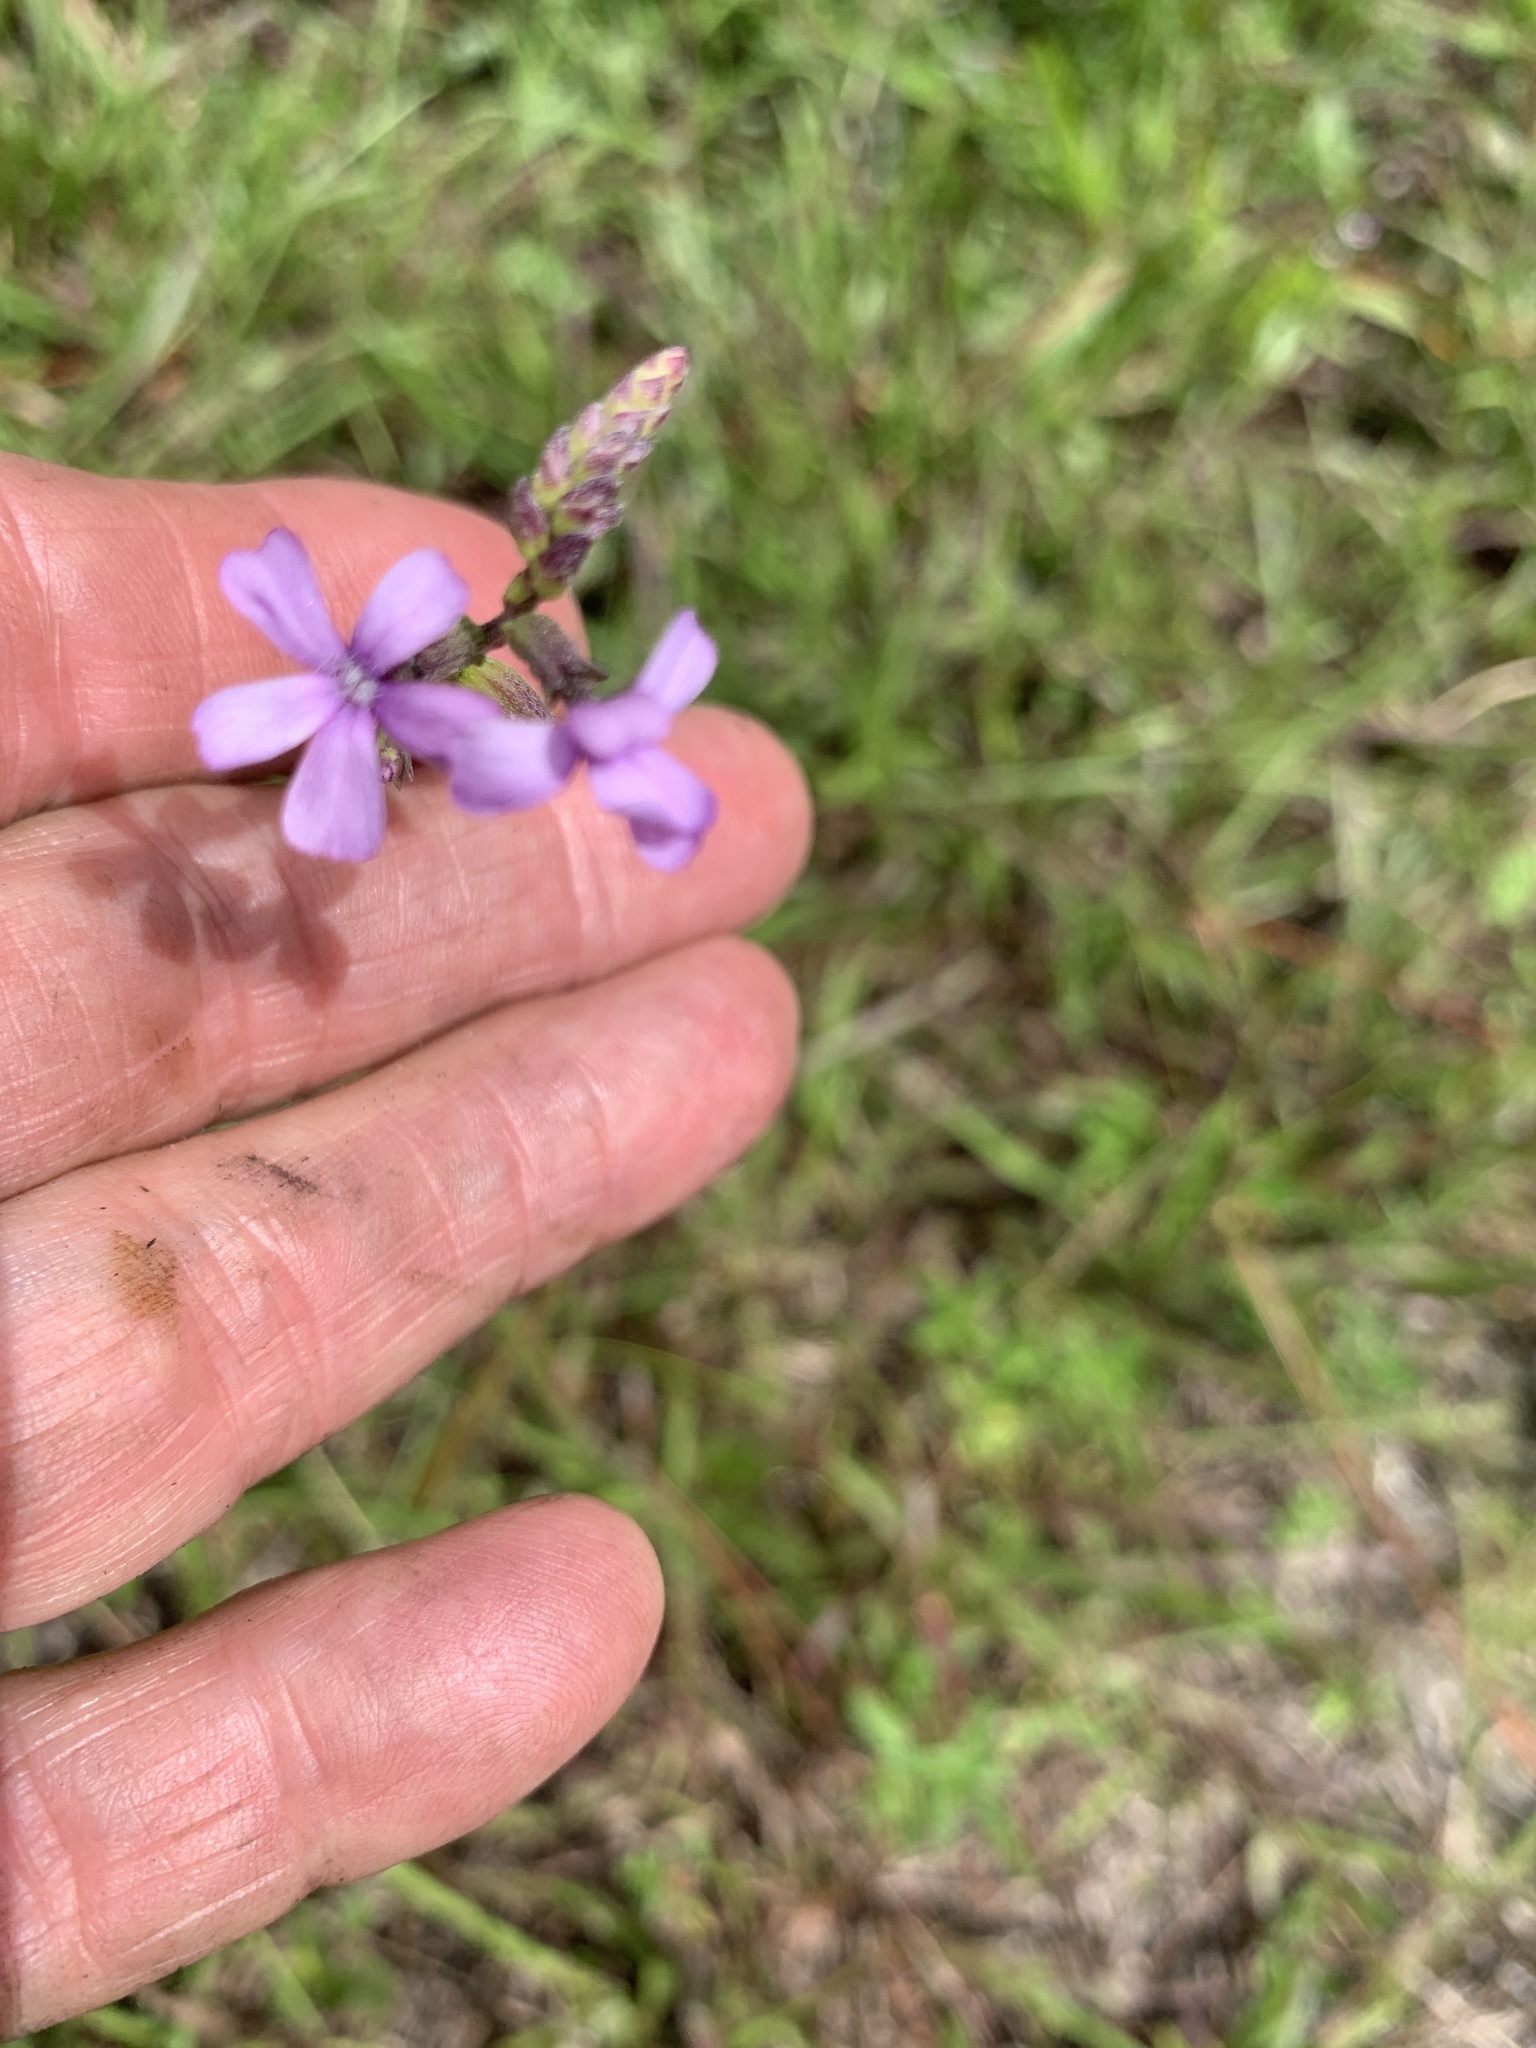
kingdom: Plantae
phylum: Tracheophyta
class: Magnoliopsida
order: Lamiales
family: Orobanchaceae
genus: Buchnera
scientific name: Buchnera floridana
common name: Florida bluehearts
